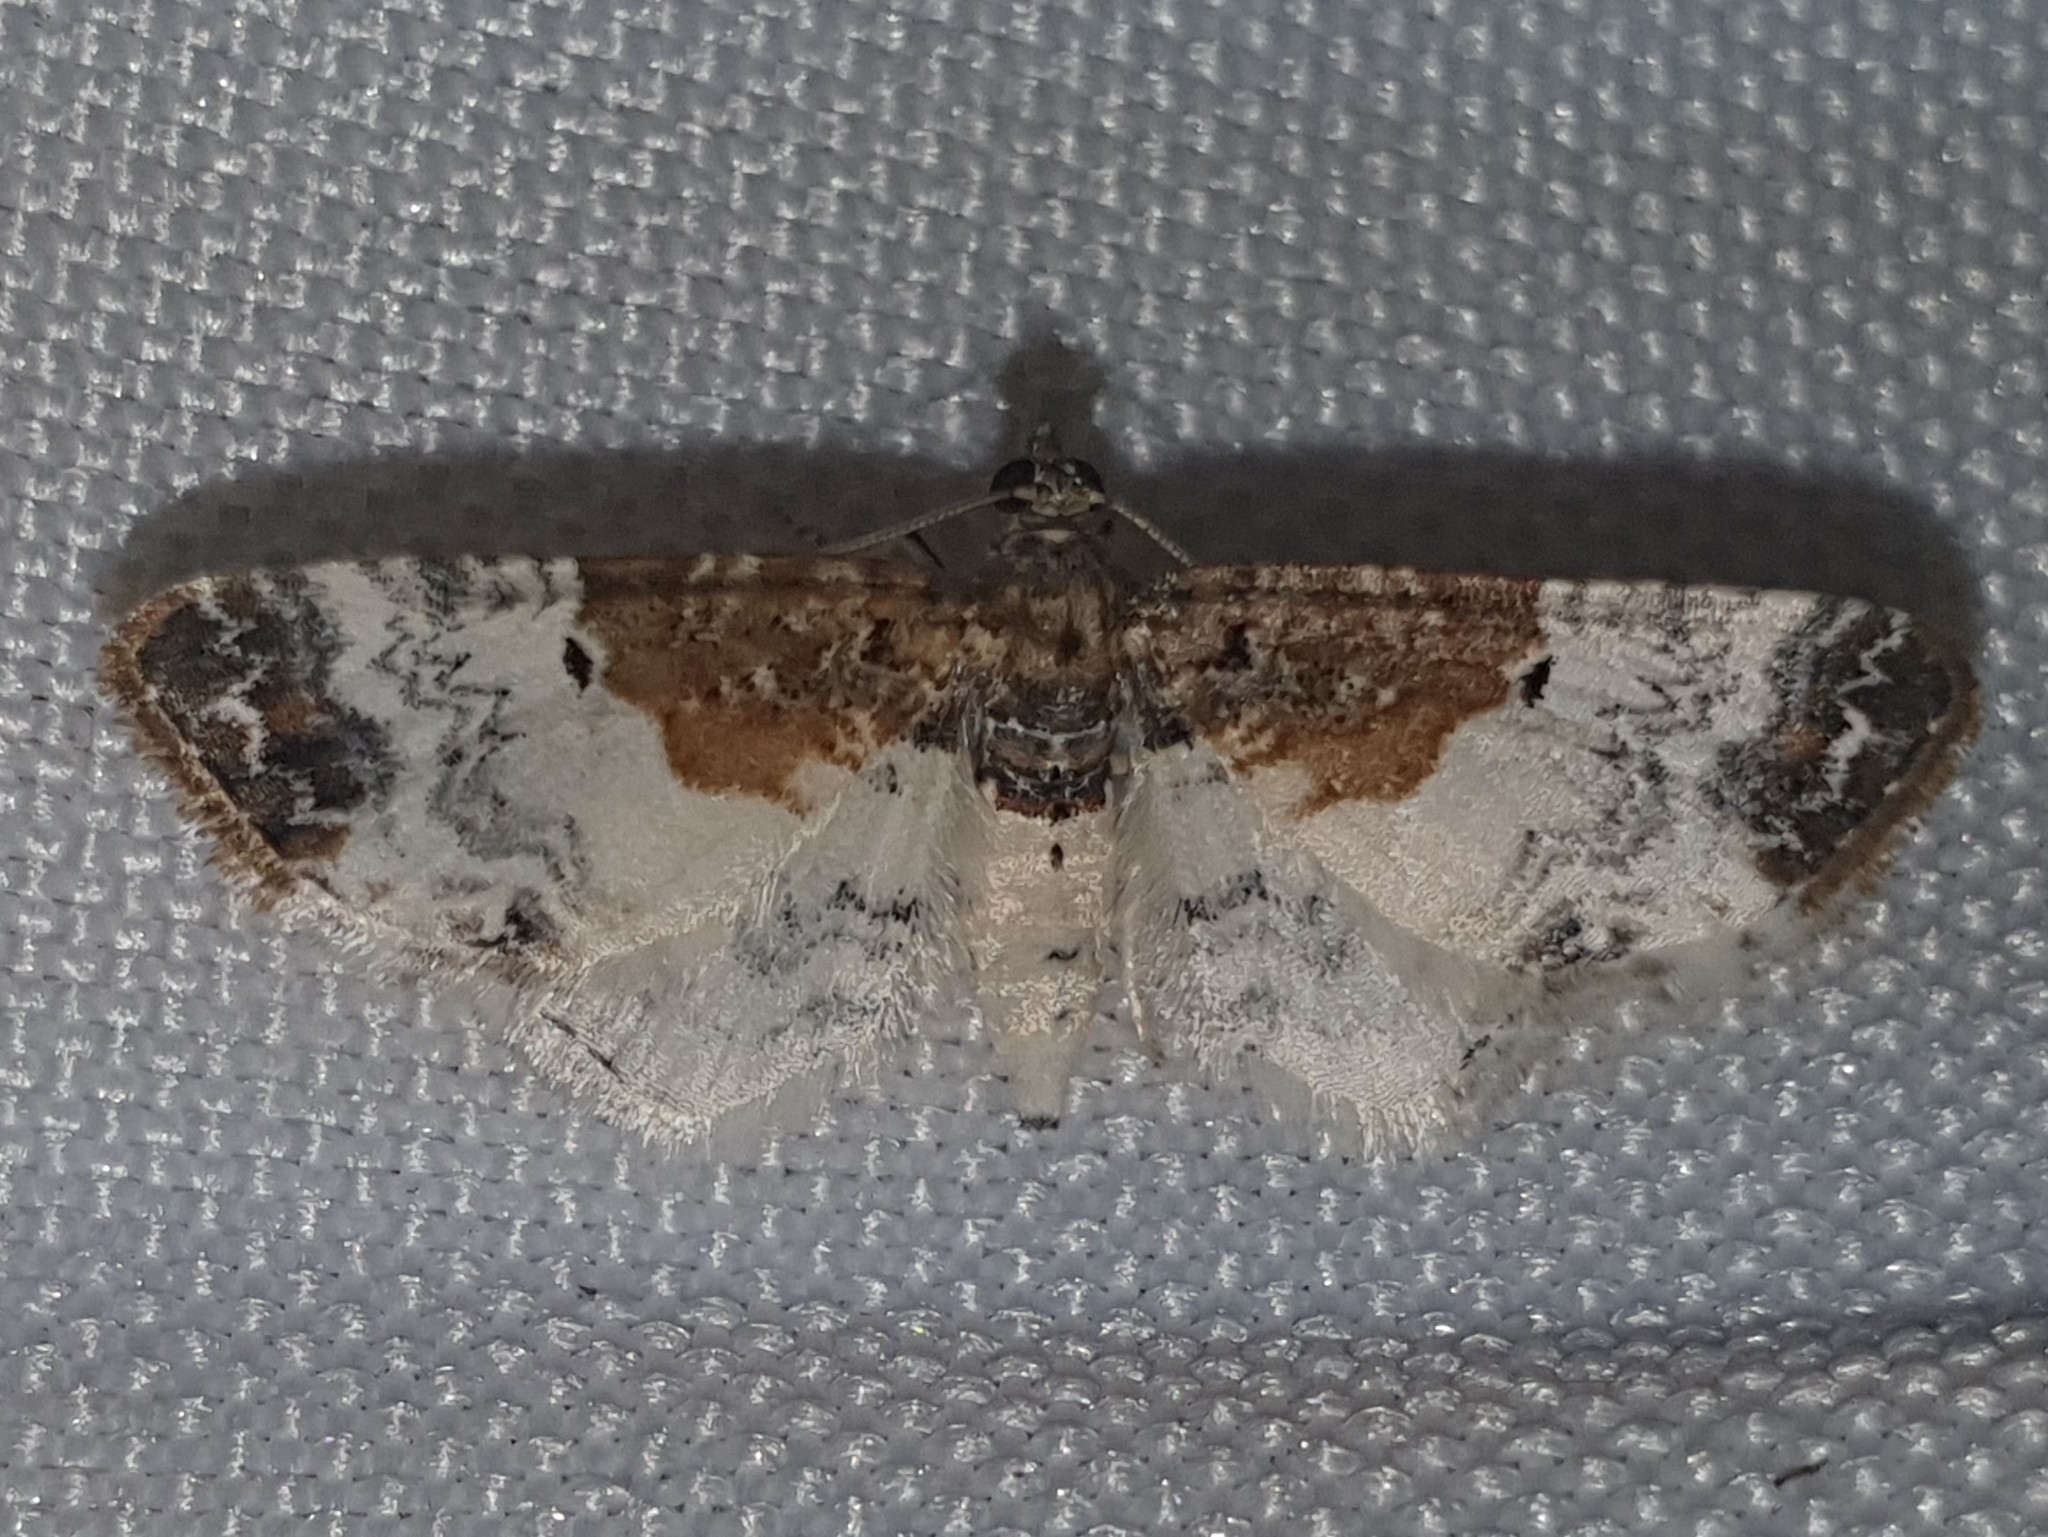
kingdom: Animalia
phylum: Arthropoda
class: Insecta
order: Lepidoptera
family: Geometridae
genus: Eupithecia
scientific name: Eupithecia breviculata
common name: Rusty-shouldered pug
